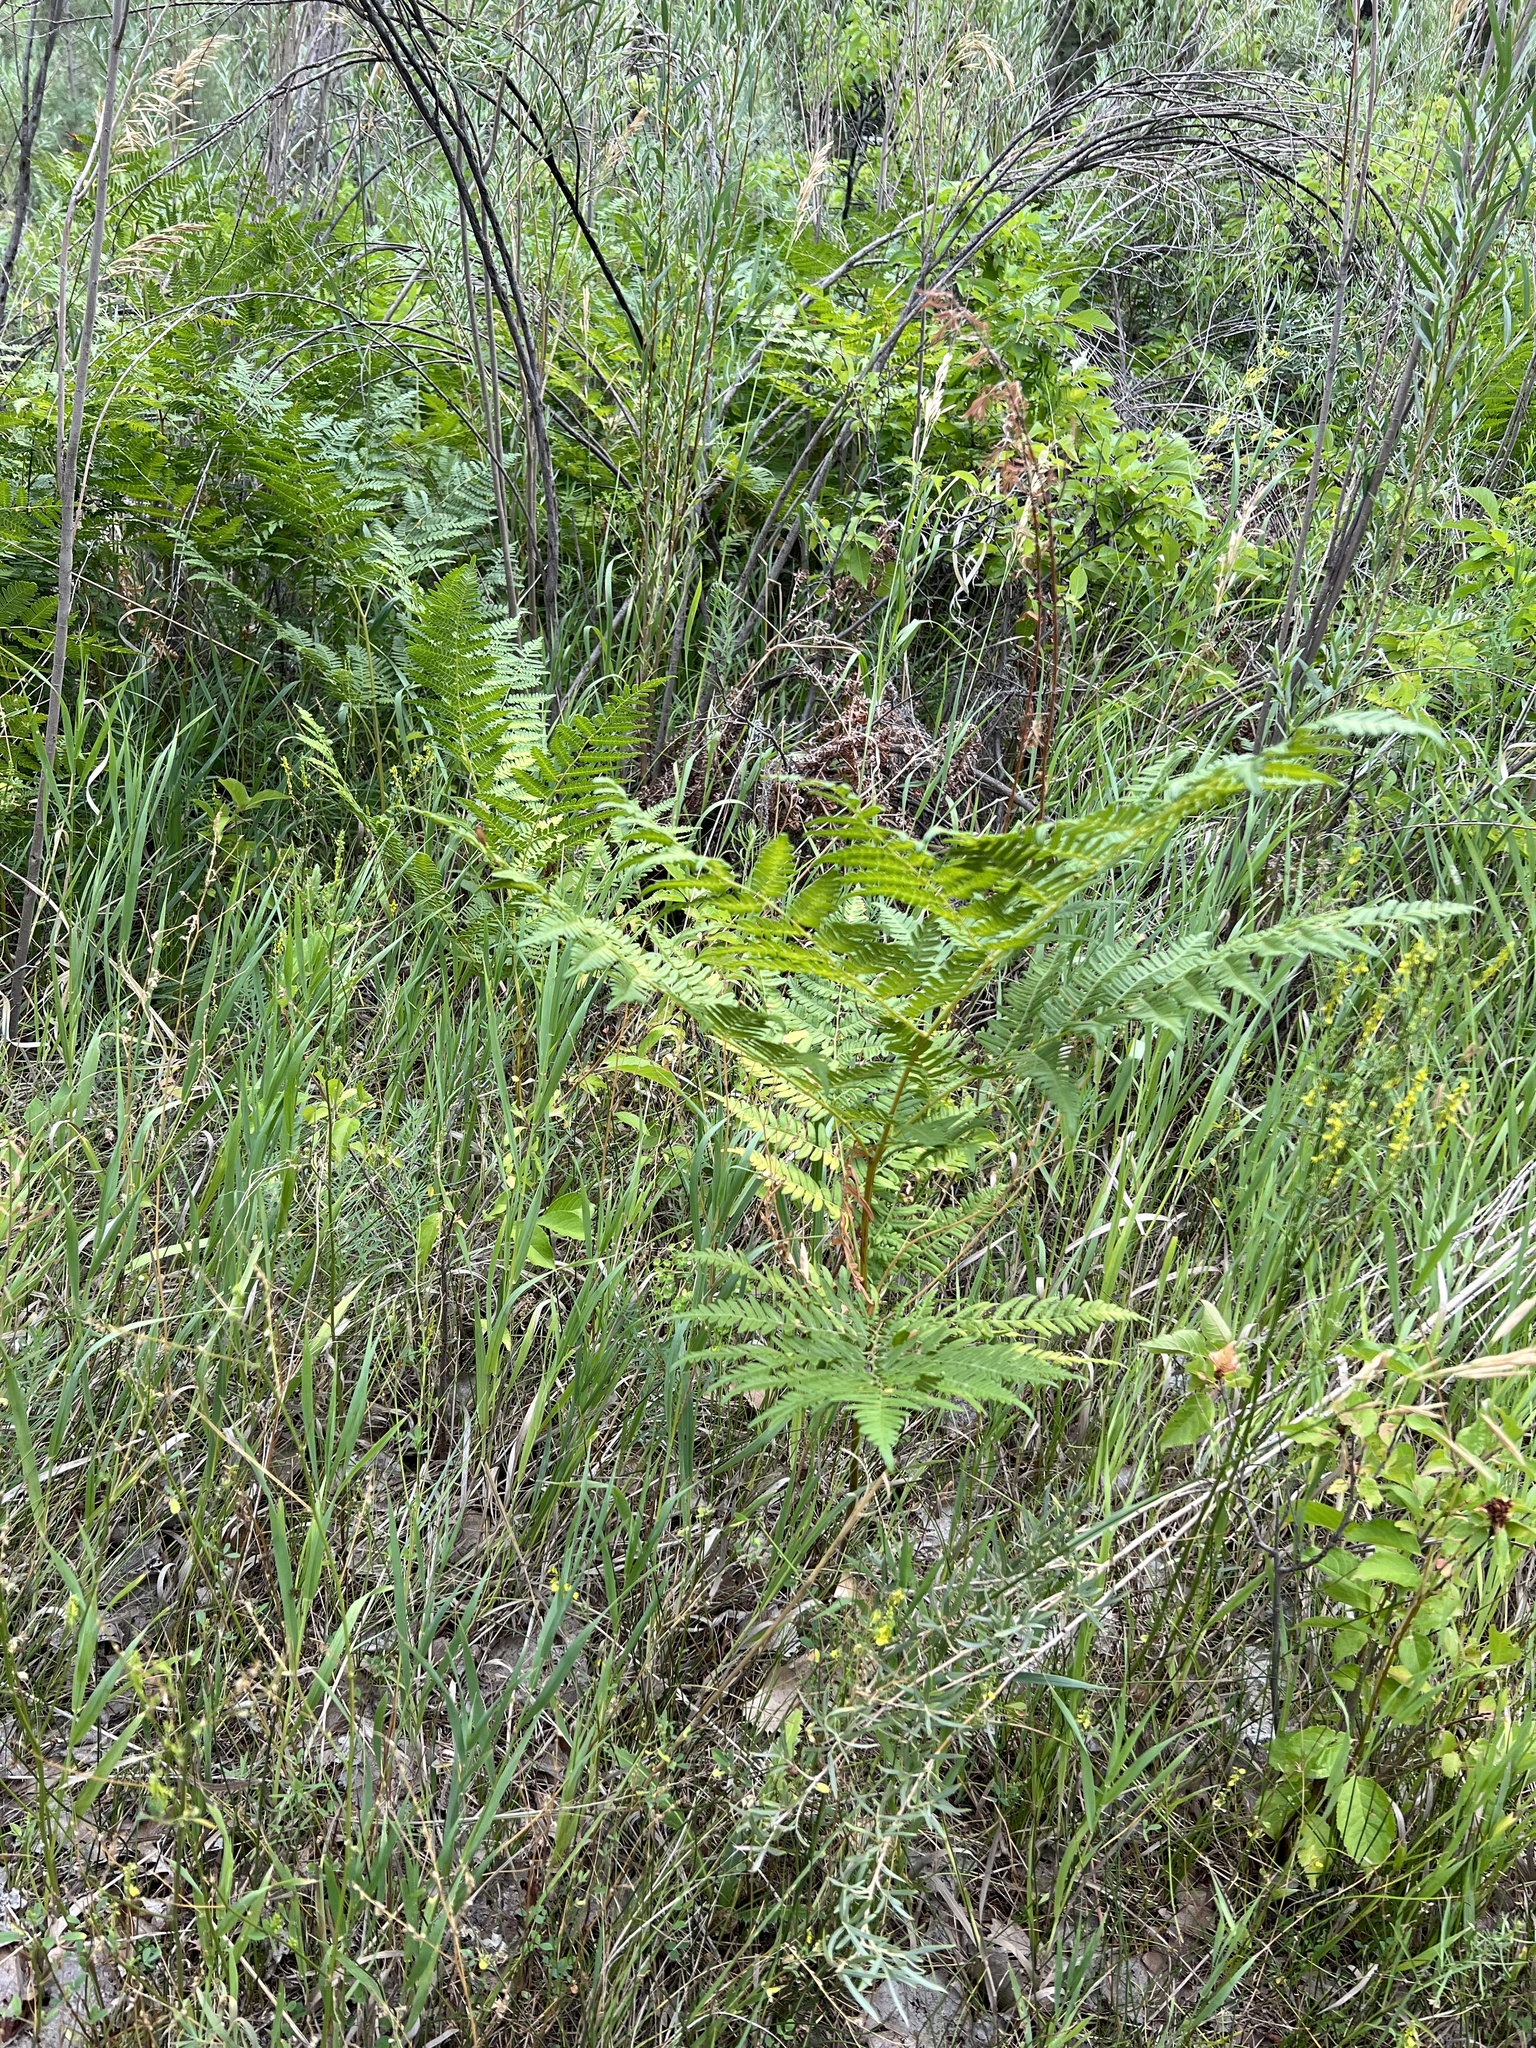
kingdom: Plantae
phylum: Tracheophyta
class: Polypodiopsida
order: Polypodiales
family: Dennstaedtiaceae
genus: Pteridium
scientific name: Pteridium aquilinum
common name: Bracken
